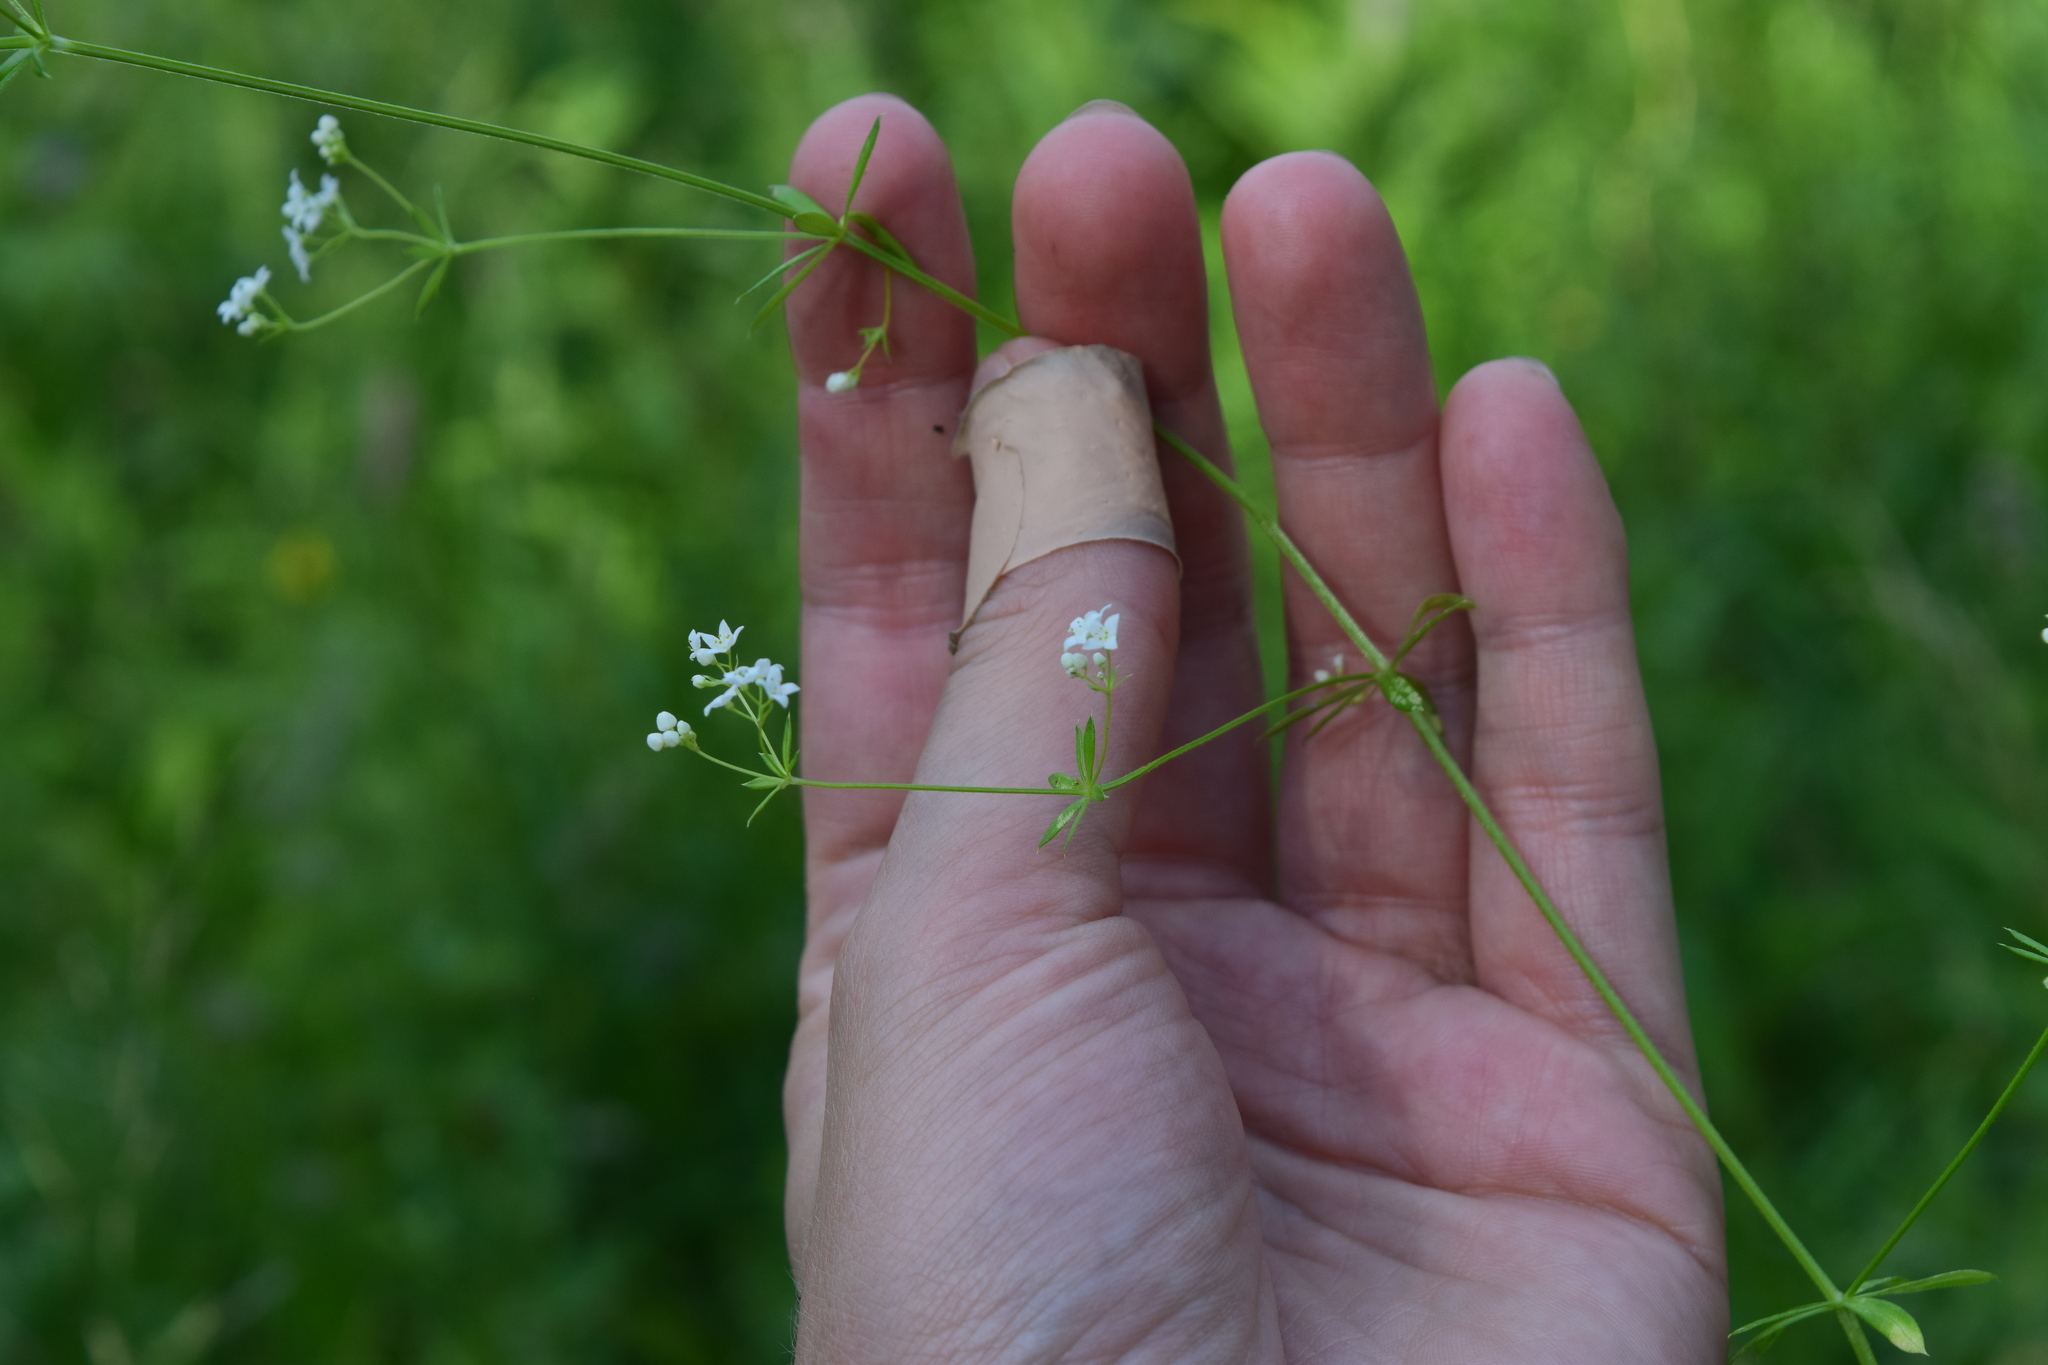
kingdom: Plantae
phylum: Tracheophyta
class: Magnoliopsida
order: Gentianales
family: Rubiaceae
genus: Galium
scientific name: Galium uliginosum
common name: Fen bedstraw
